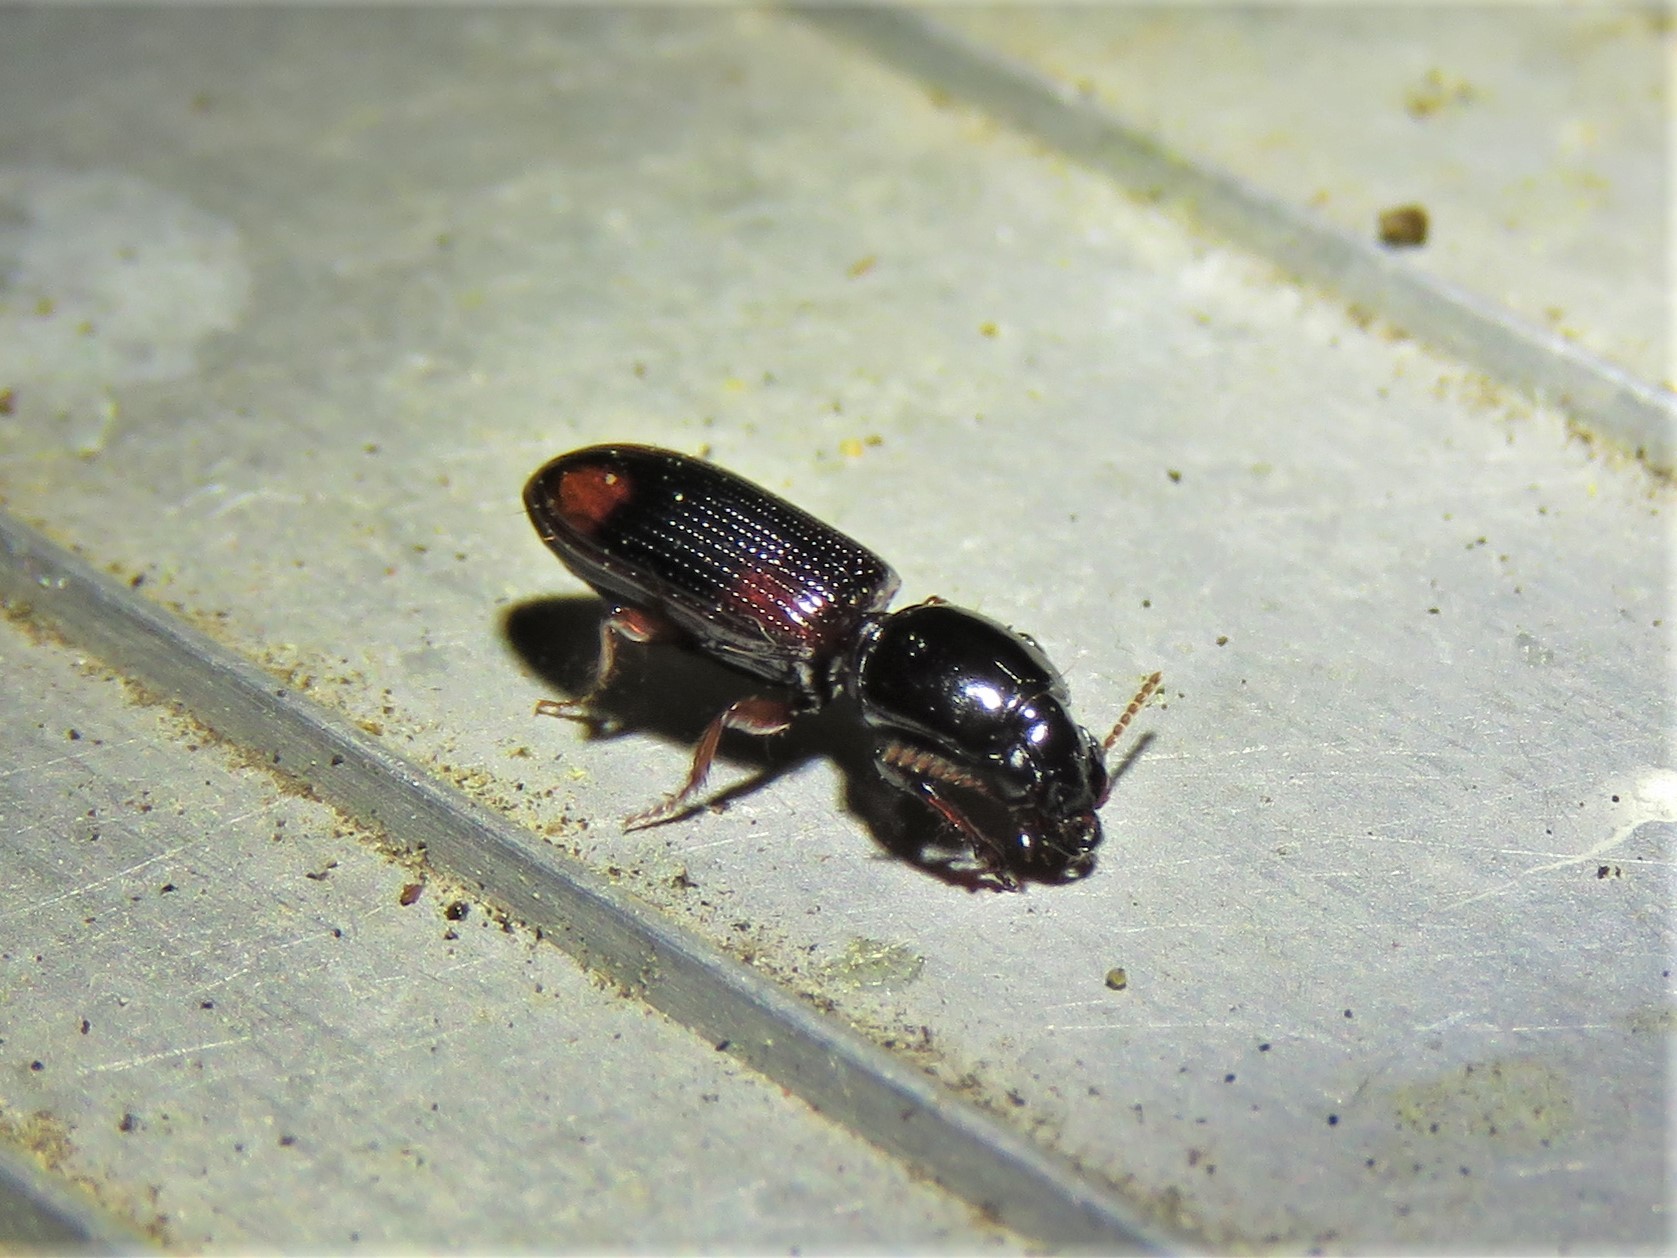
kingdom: Animalia
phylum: Arthropoda
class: Insecta
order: Coleoptera
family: Carabidae
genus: Clivina
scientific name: Clivina bipustulata
